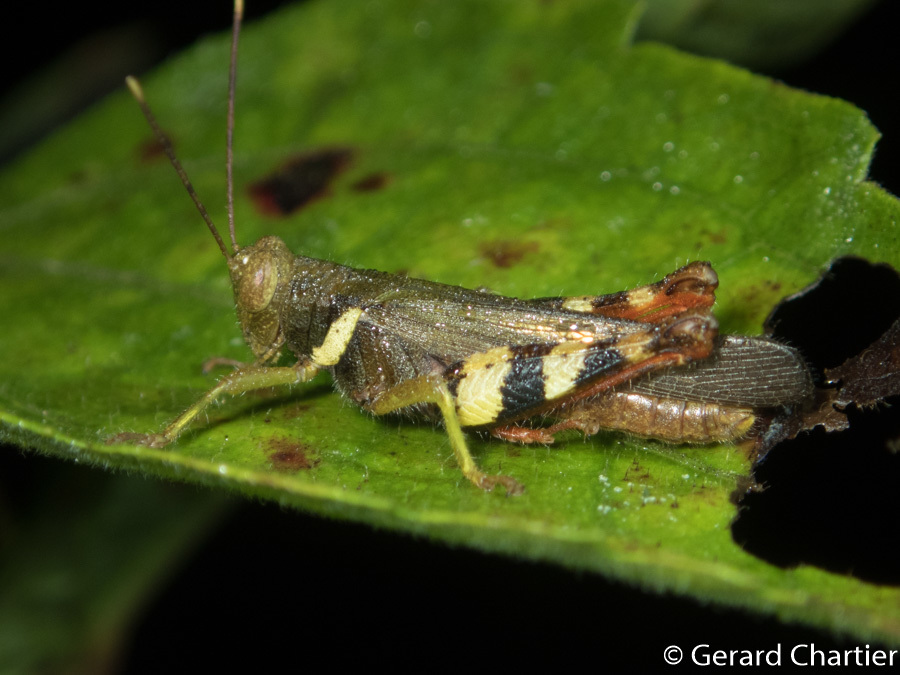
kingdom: Animalia
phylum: Arthropoda
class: Insecta
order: Orthoptera
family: Acrididae
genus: Apalacris
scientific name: Apalacris varicornis
